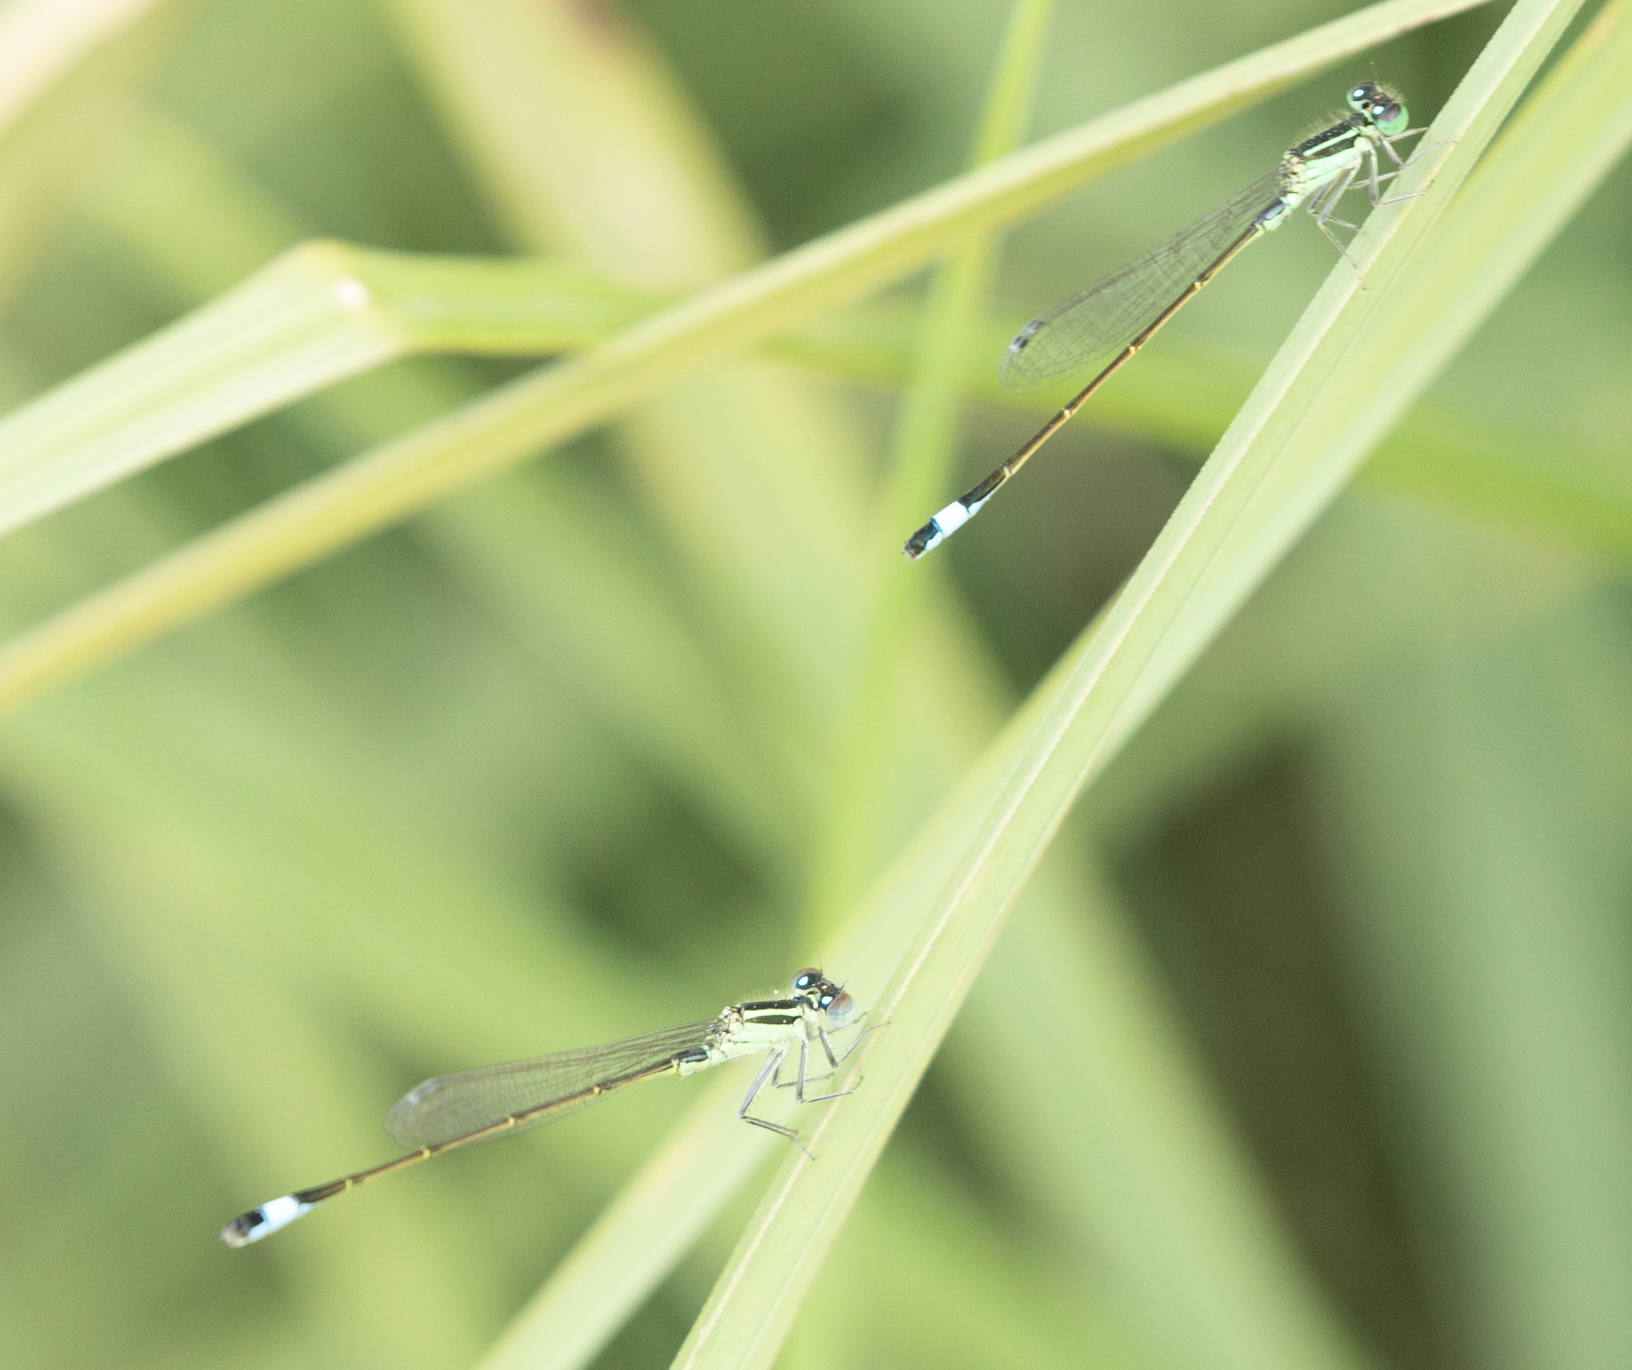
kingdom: Animalia
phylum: Arthropoda
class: Insecta
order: Odonata
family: Coenagrionidae
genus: Ischnura
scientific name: Ischnura elegans
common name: Blue-tailed damselfly
